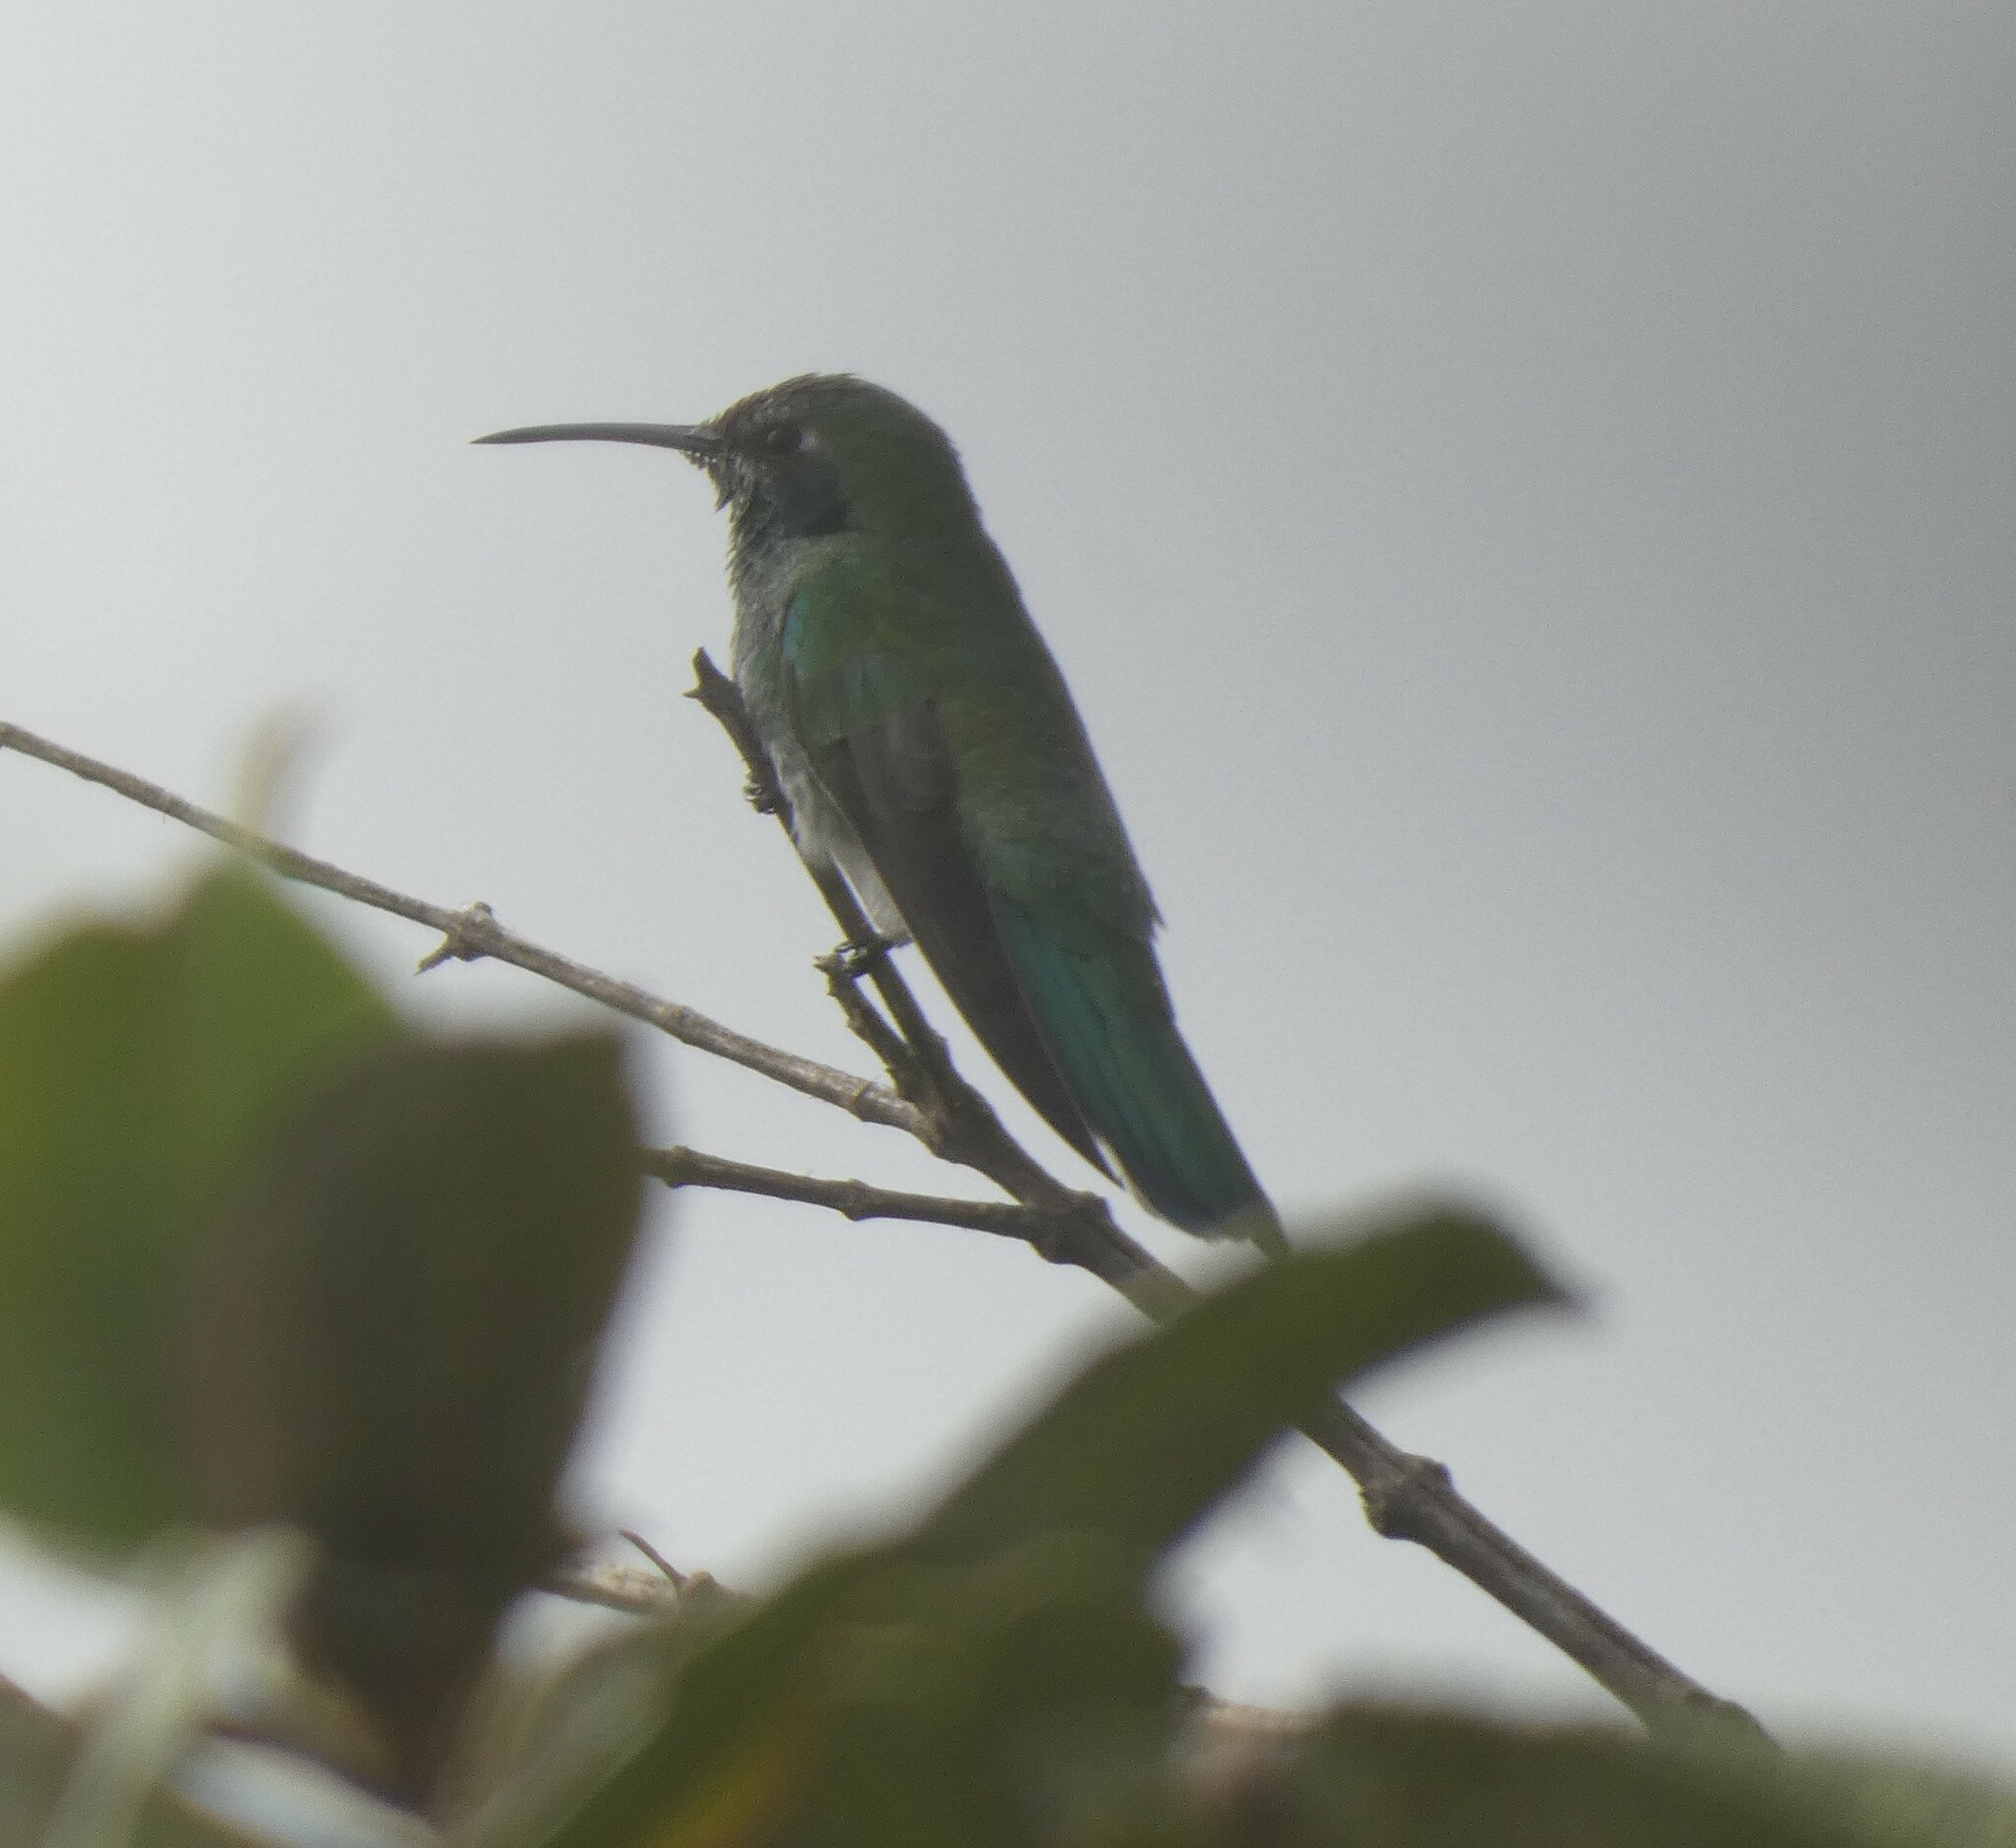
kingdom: Animalia
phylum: Chordata
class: Aves
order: Apodiformes
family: Trochilidae
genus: Colibri
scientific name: Colibri serrirostris
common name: White-vented violetear
